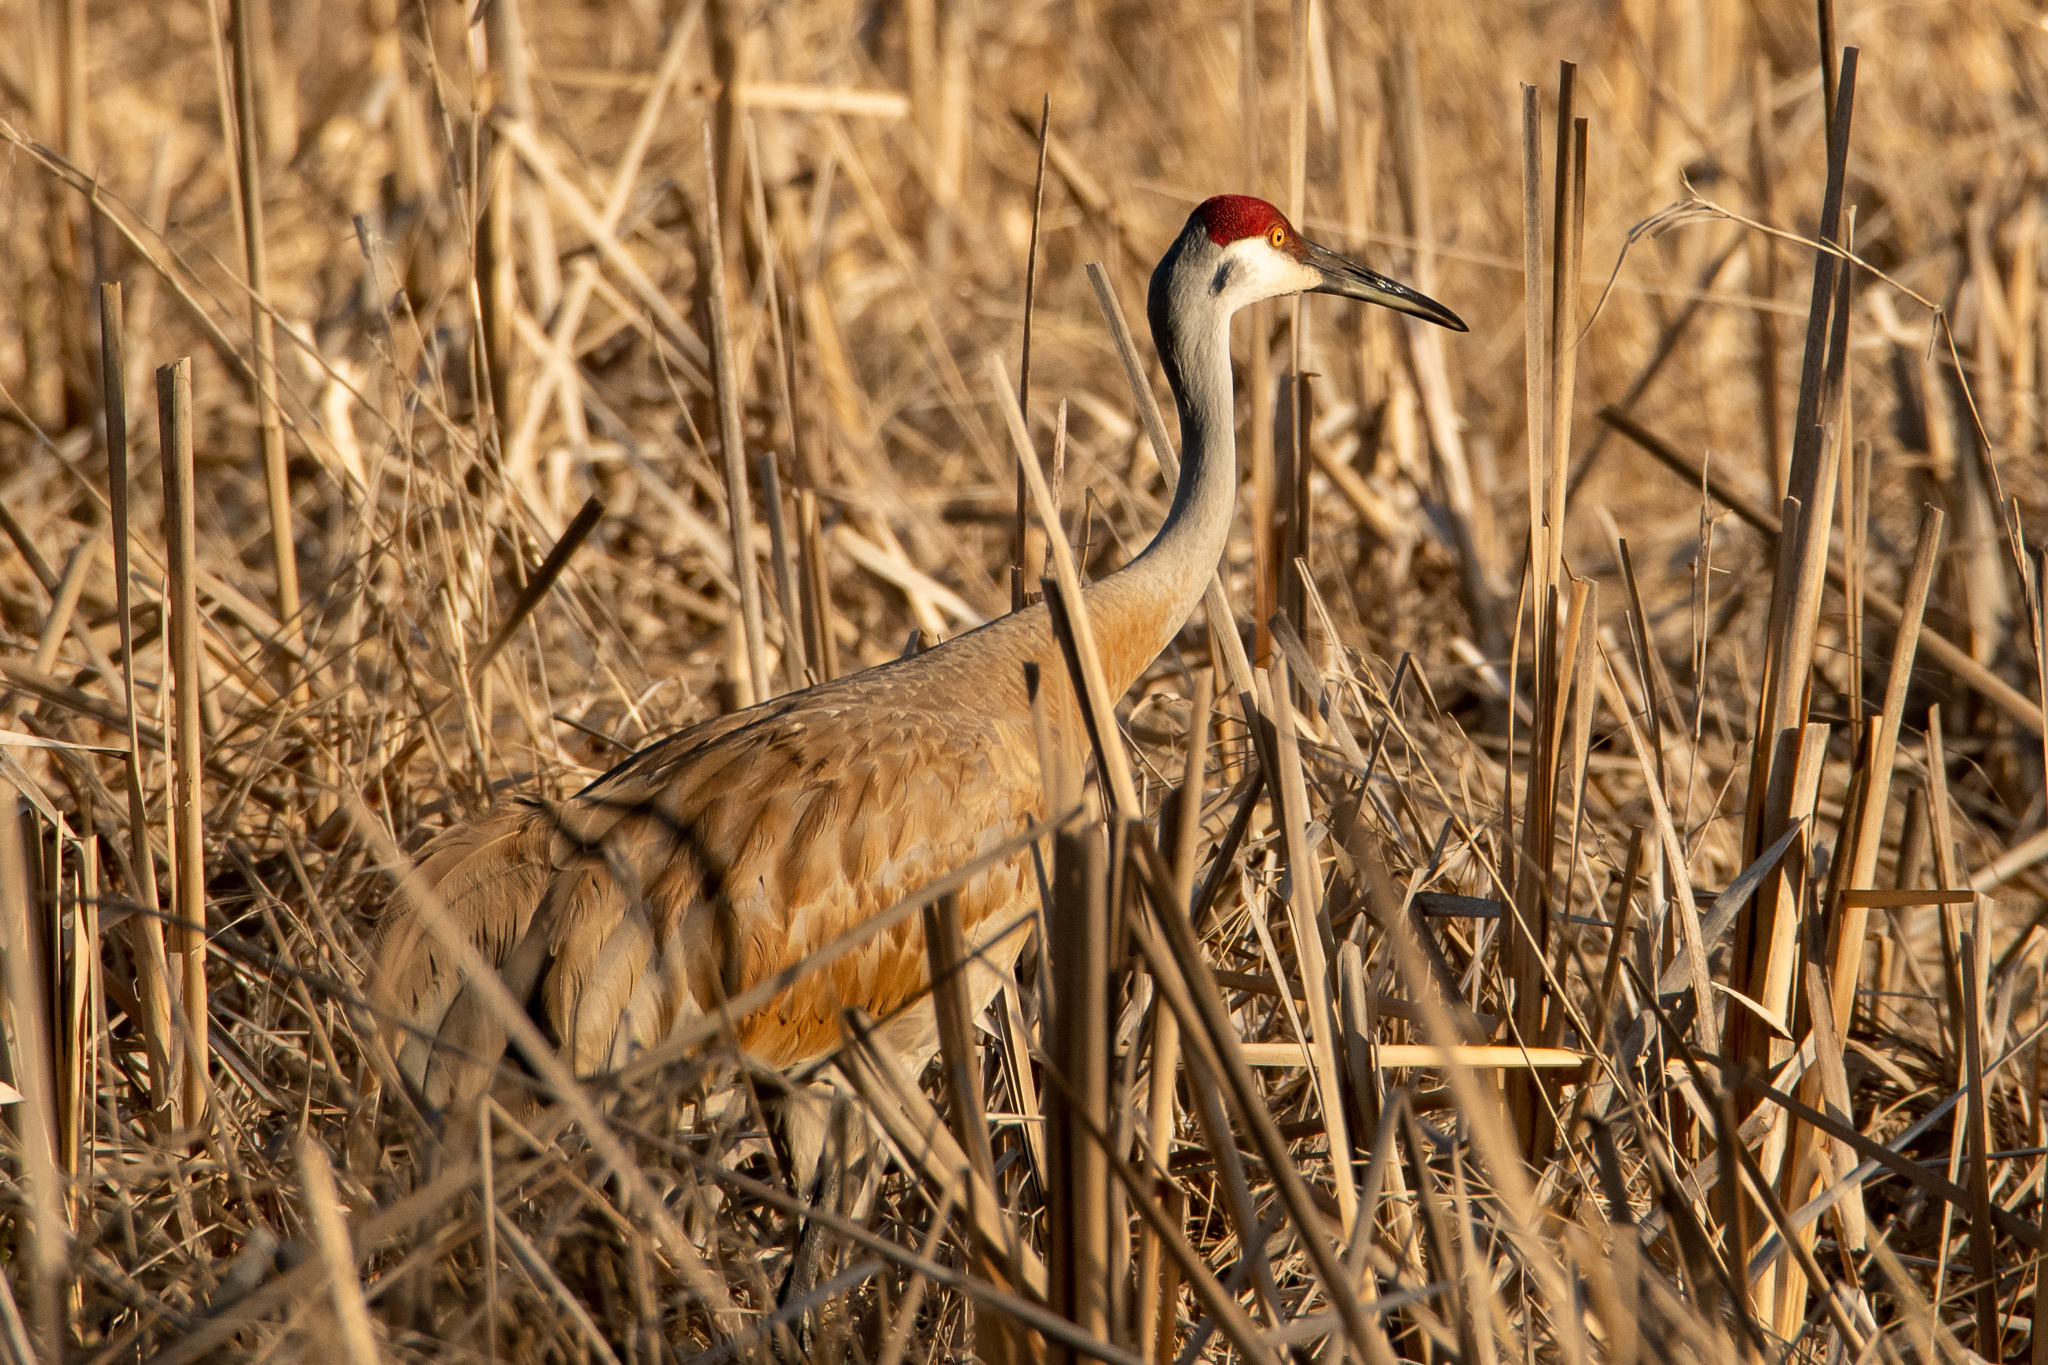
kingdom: Animalia
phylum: Chordata
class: Aves
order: Gruiformes
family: Gruidae
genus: Grus
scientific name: Grus canadensis
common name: Sandhill crane
